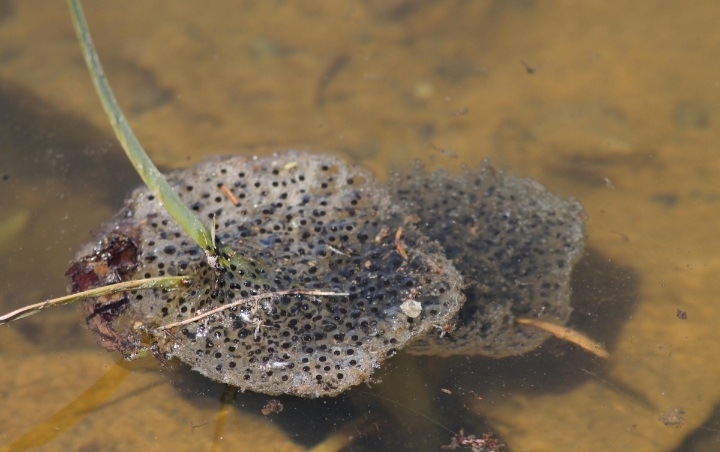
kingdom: Animalia
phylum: Chordata
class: Amphibia
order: Anura
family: Ranidae
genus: Rana
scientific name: Rana dalmatina
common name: Agile frog
